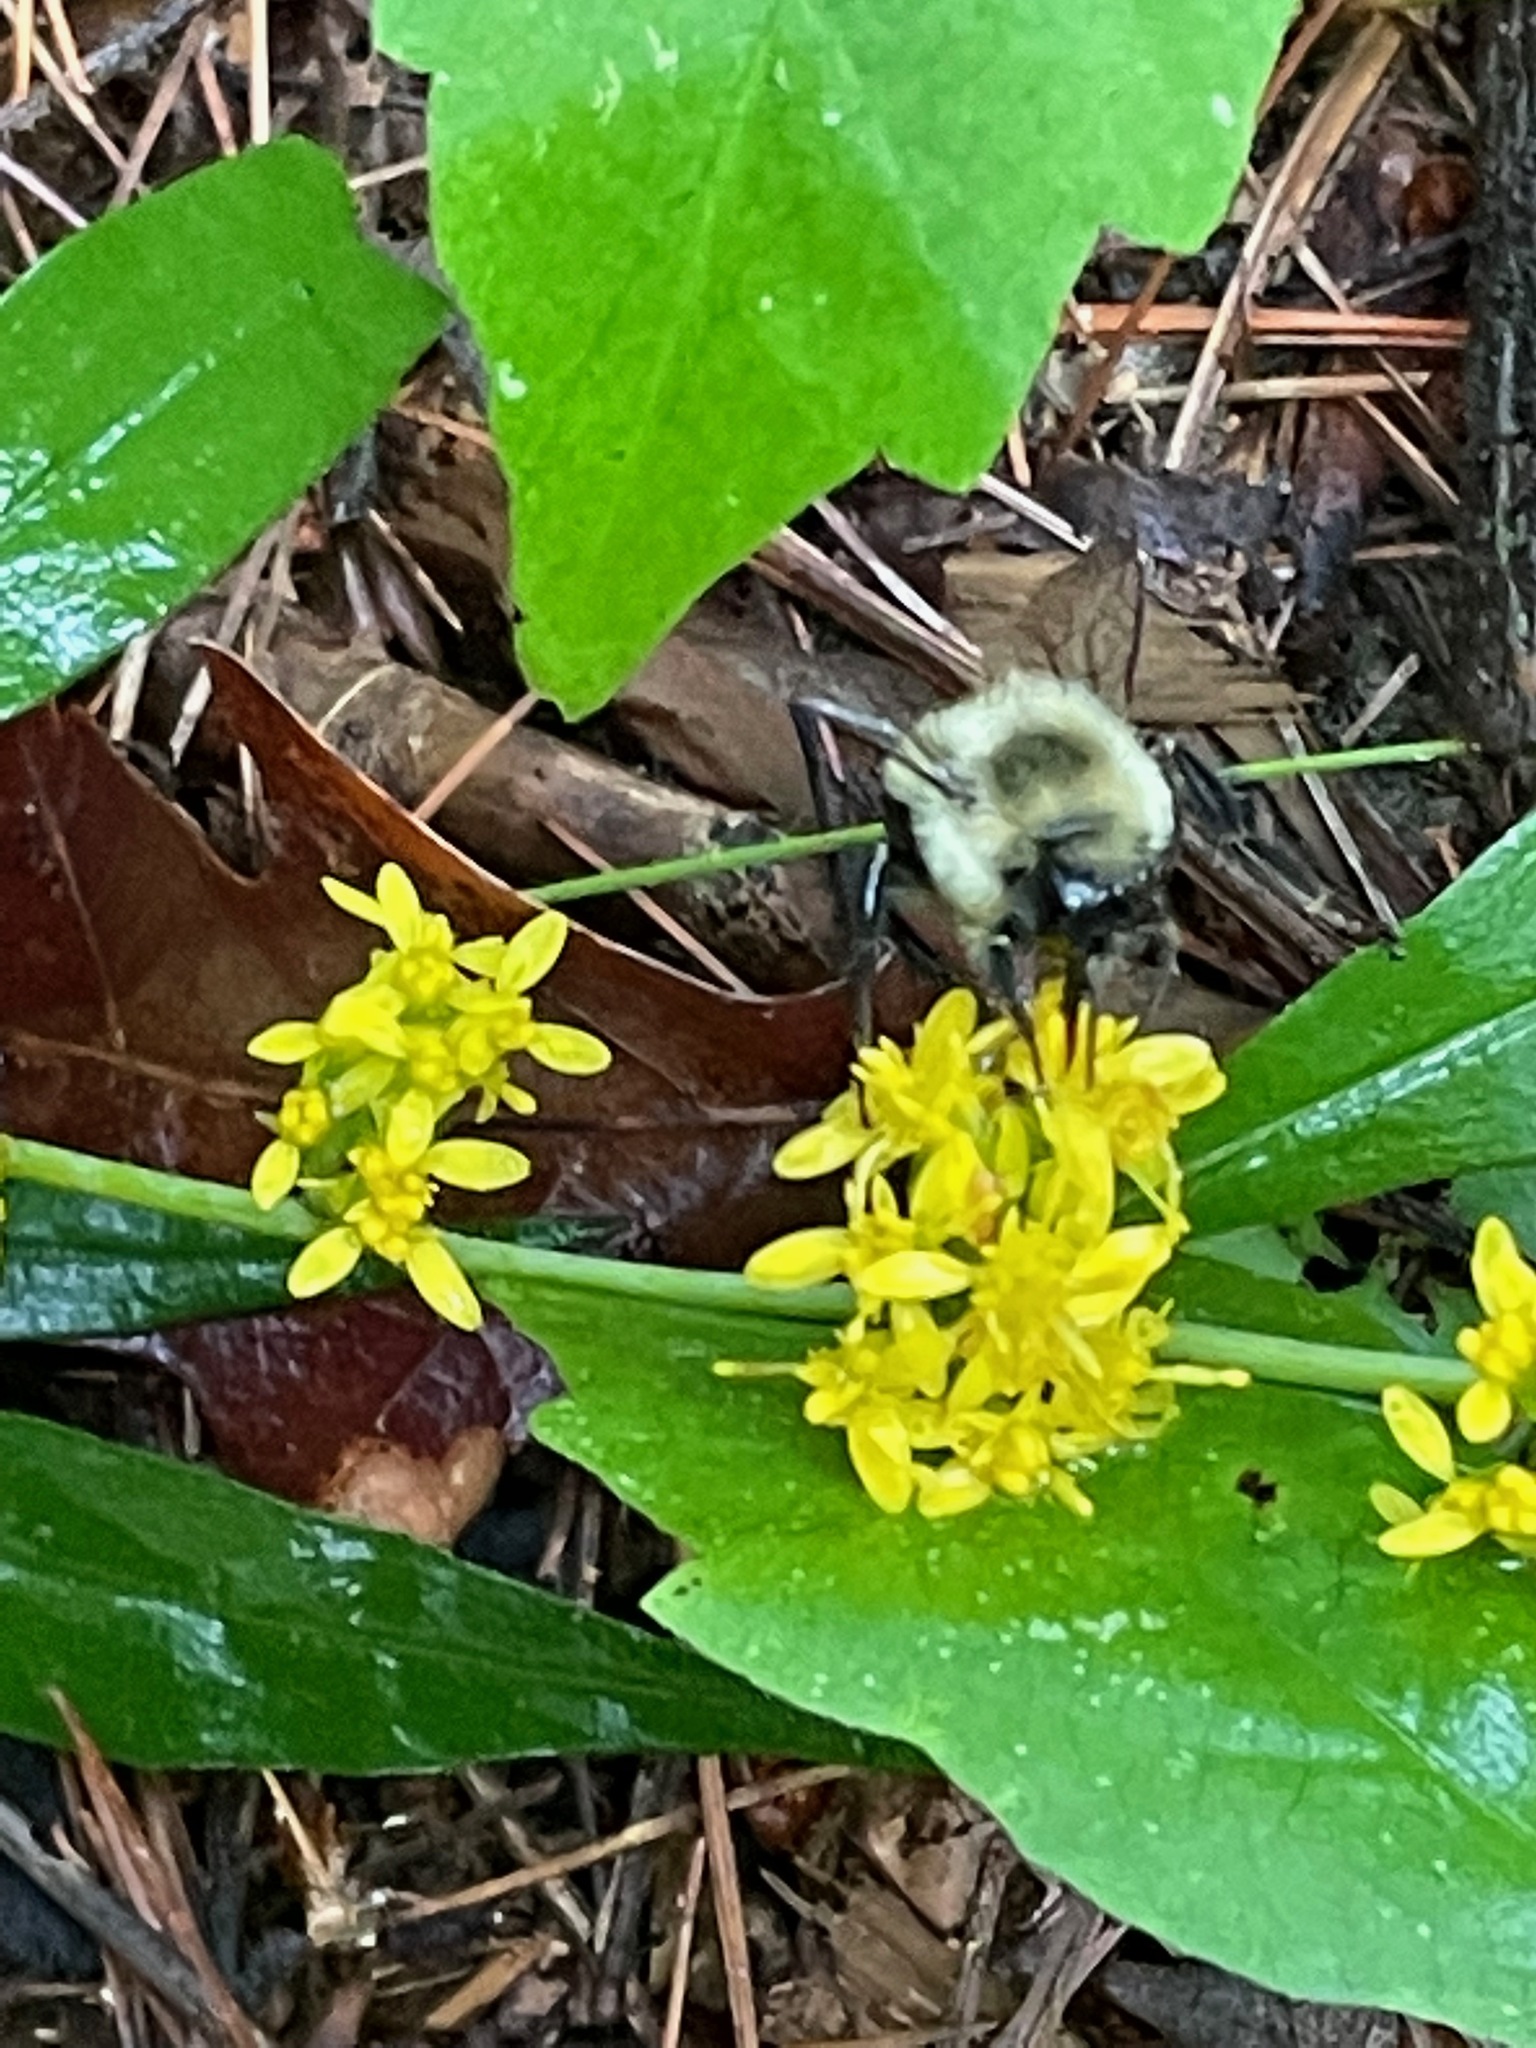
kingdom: Animalia
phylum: Arthropoda
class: Insecta
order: Hymenoptera
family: Apidae
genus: Bombus
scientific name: Bombus impatiens
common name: Common eastern bumble bee
